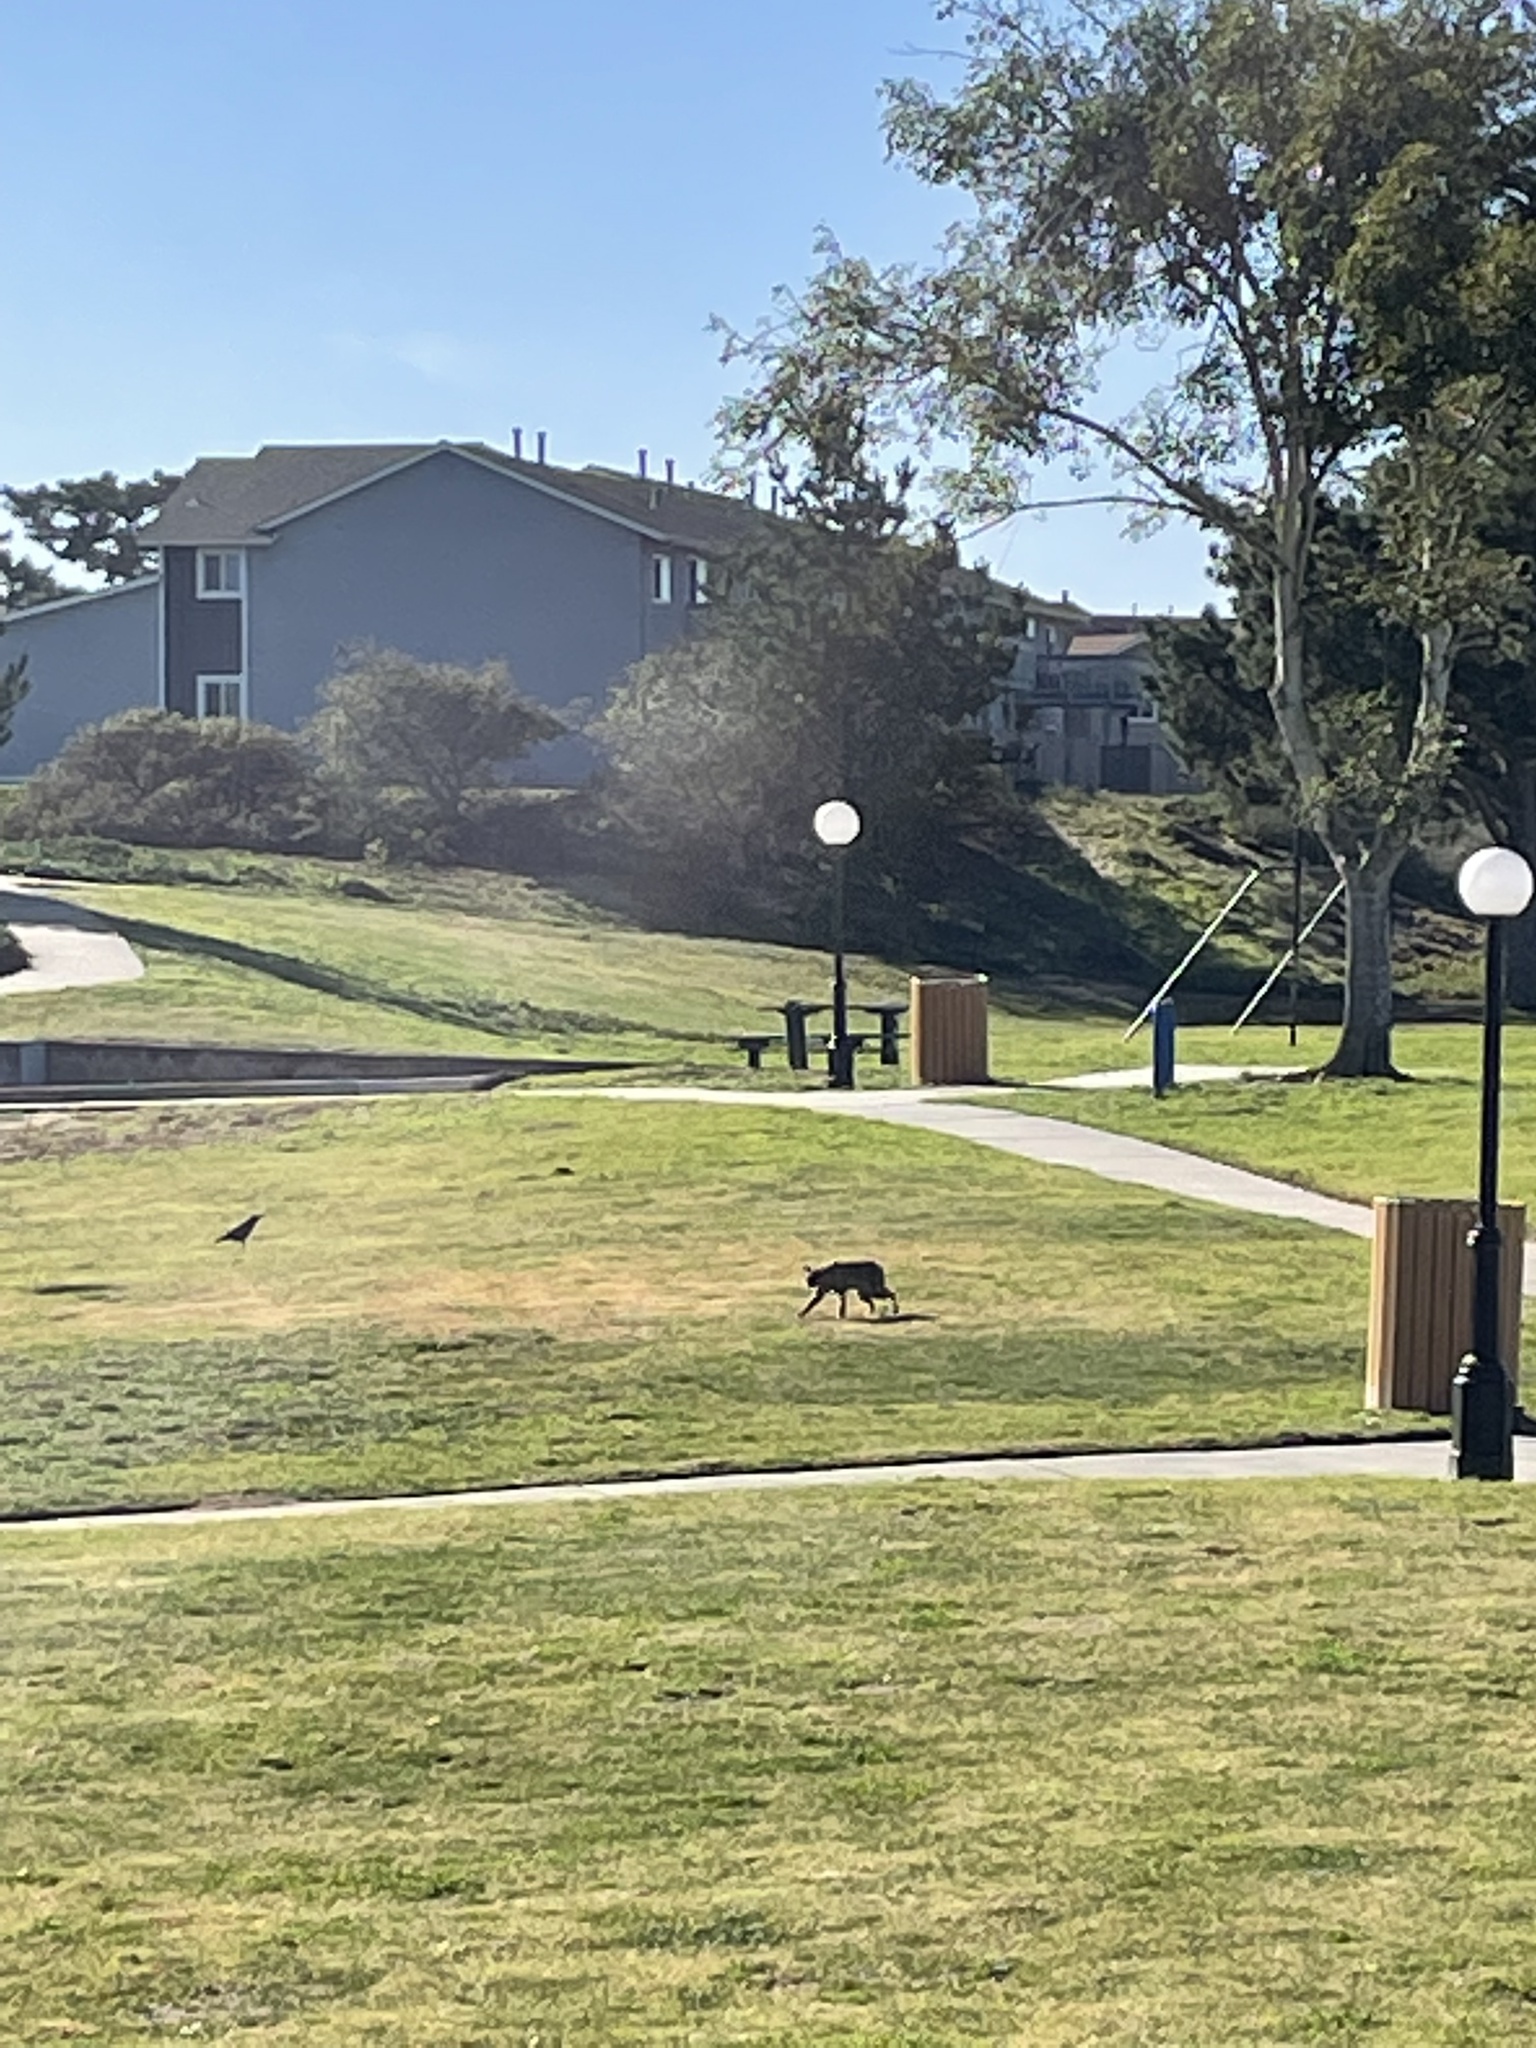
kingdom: Animalia
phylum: Chordata
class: Mammalia
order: Carnivora
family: Felidae
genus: Lynx
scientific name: Lynx rufus
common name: Bobcat
